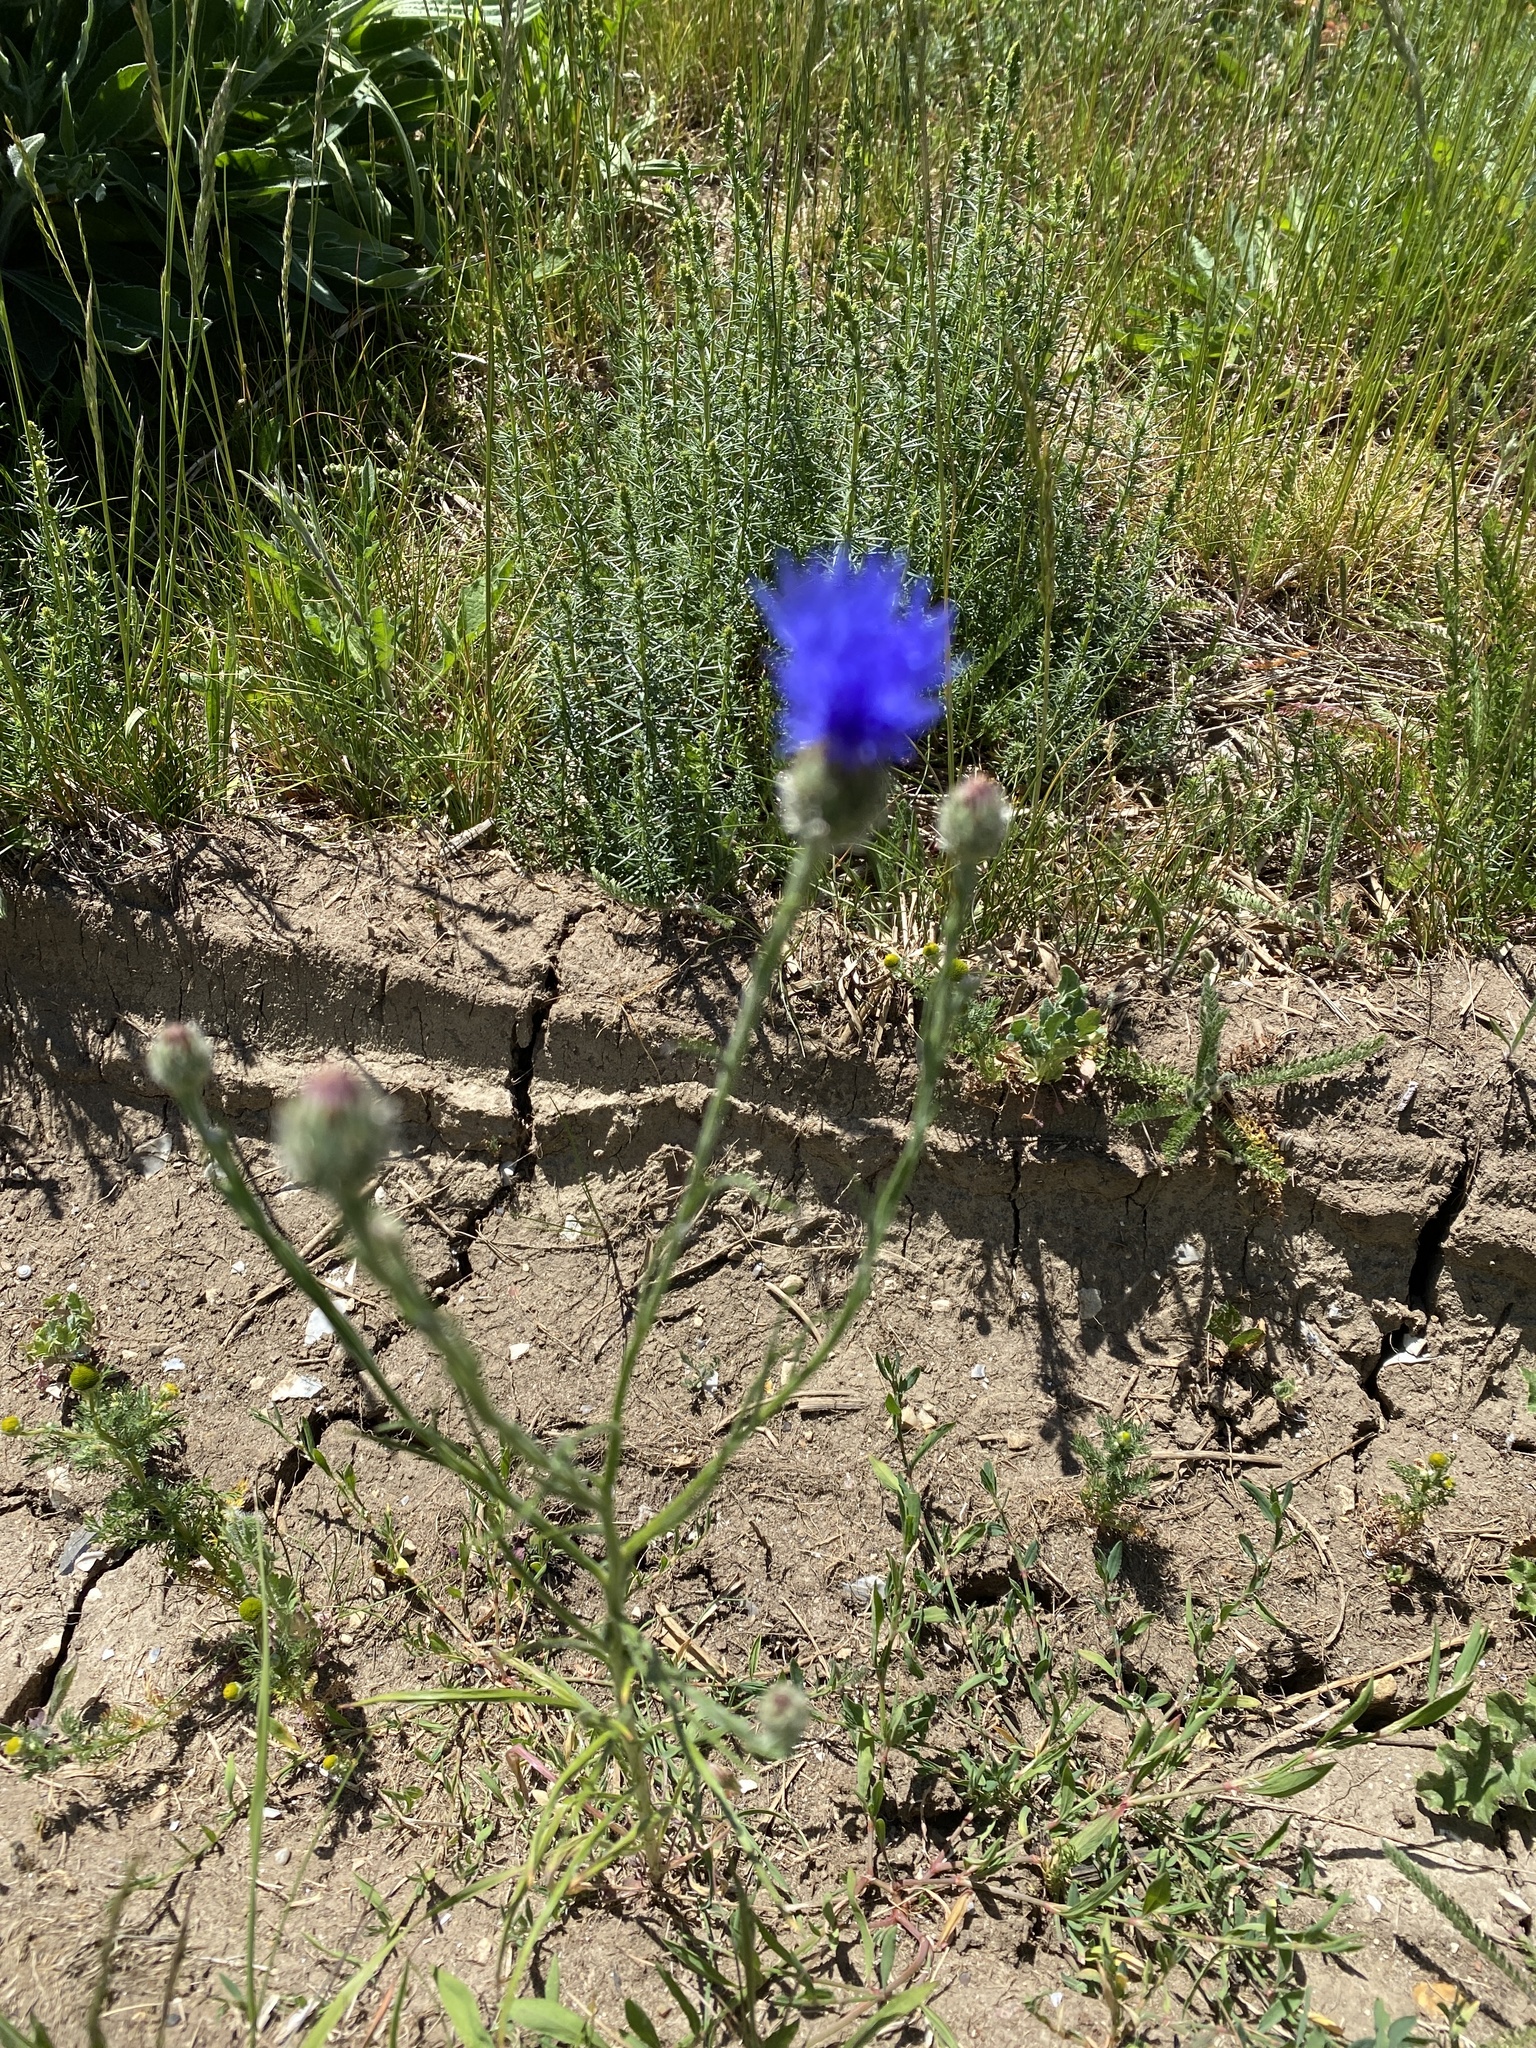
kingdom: Plantae
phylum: Tracheophyta
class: Magnoliopsida
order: Asterales
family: Asteraceae
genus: Centaurea
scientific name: Centaurea cyanus
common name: Cornflower
